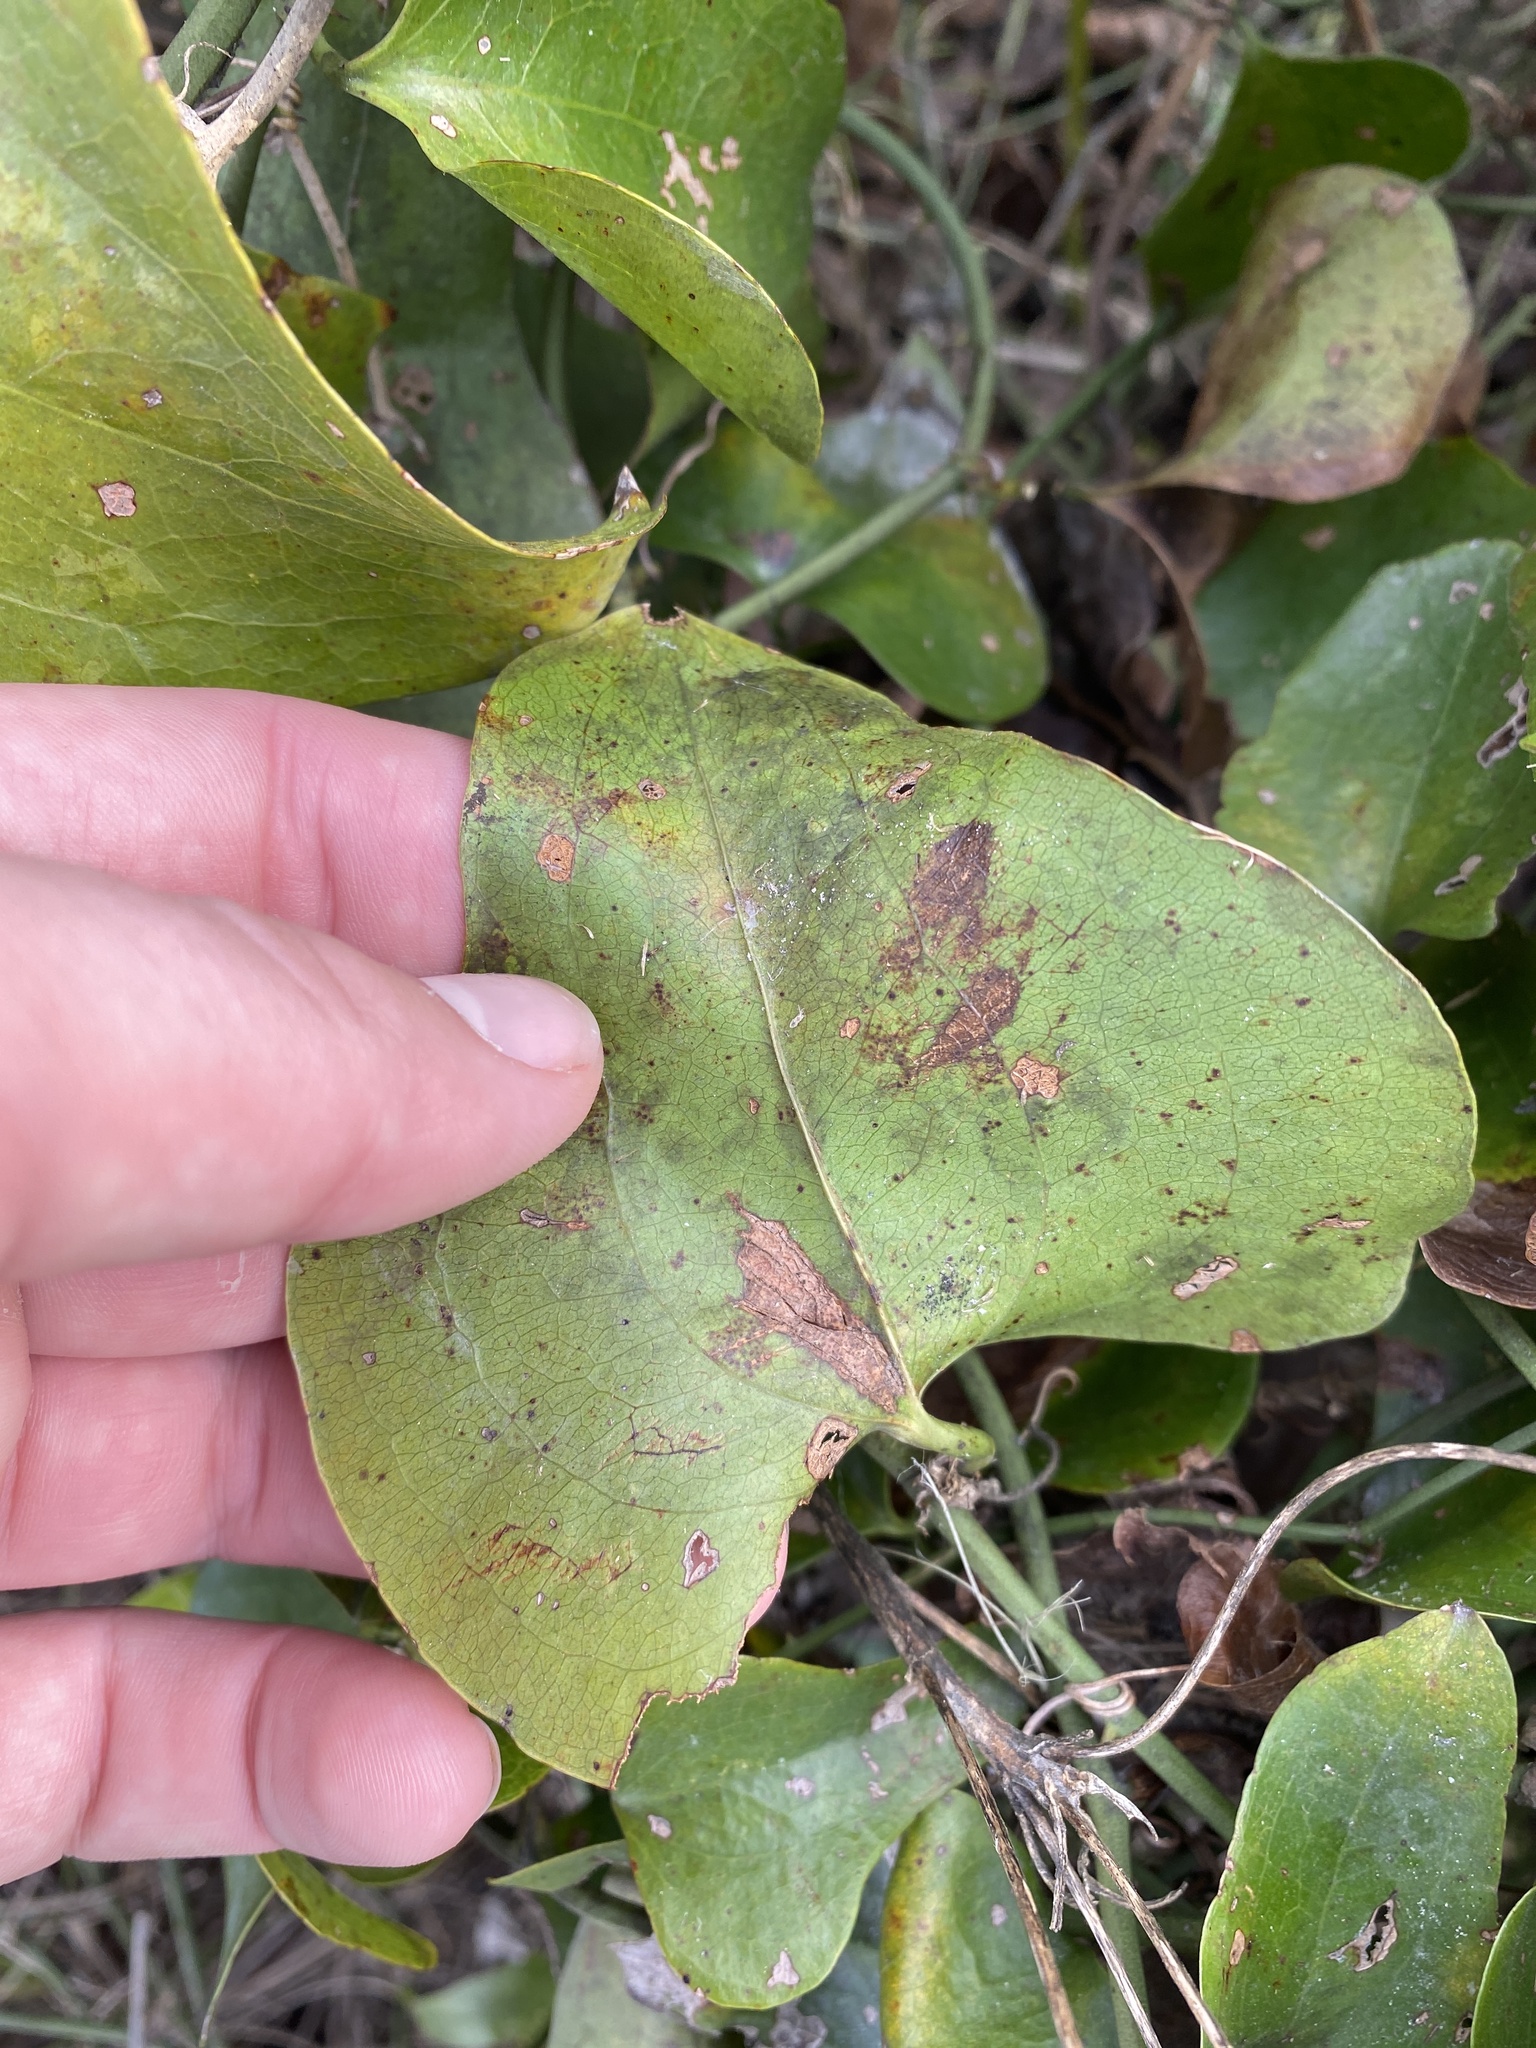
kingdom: Plantae
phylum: Tracheophyta
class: Liliopsida
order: Liliales
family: Smilacaceae
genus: Smilax
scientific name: Smilax bona-nox
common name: Catbrier
